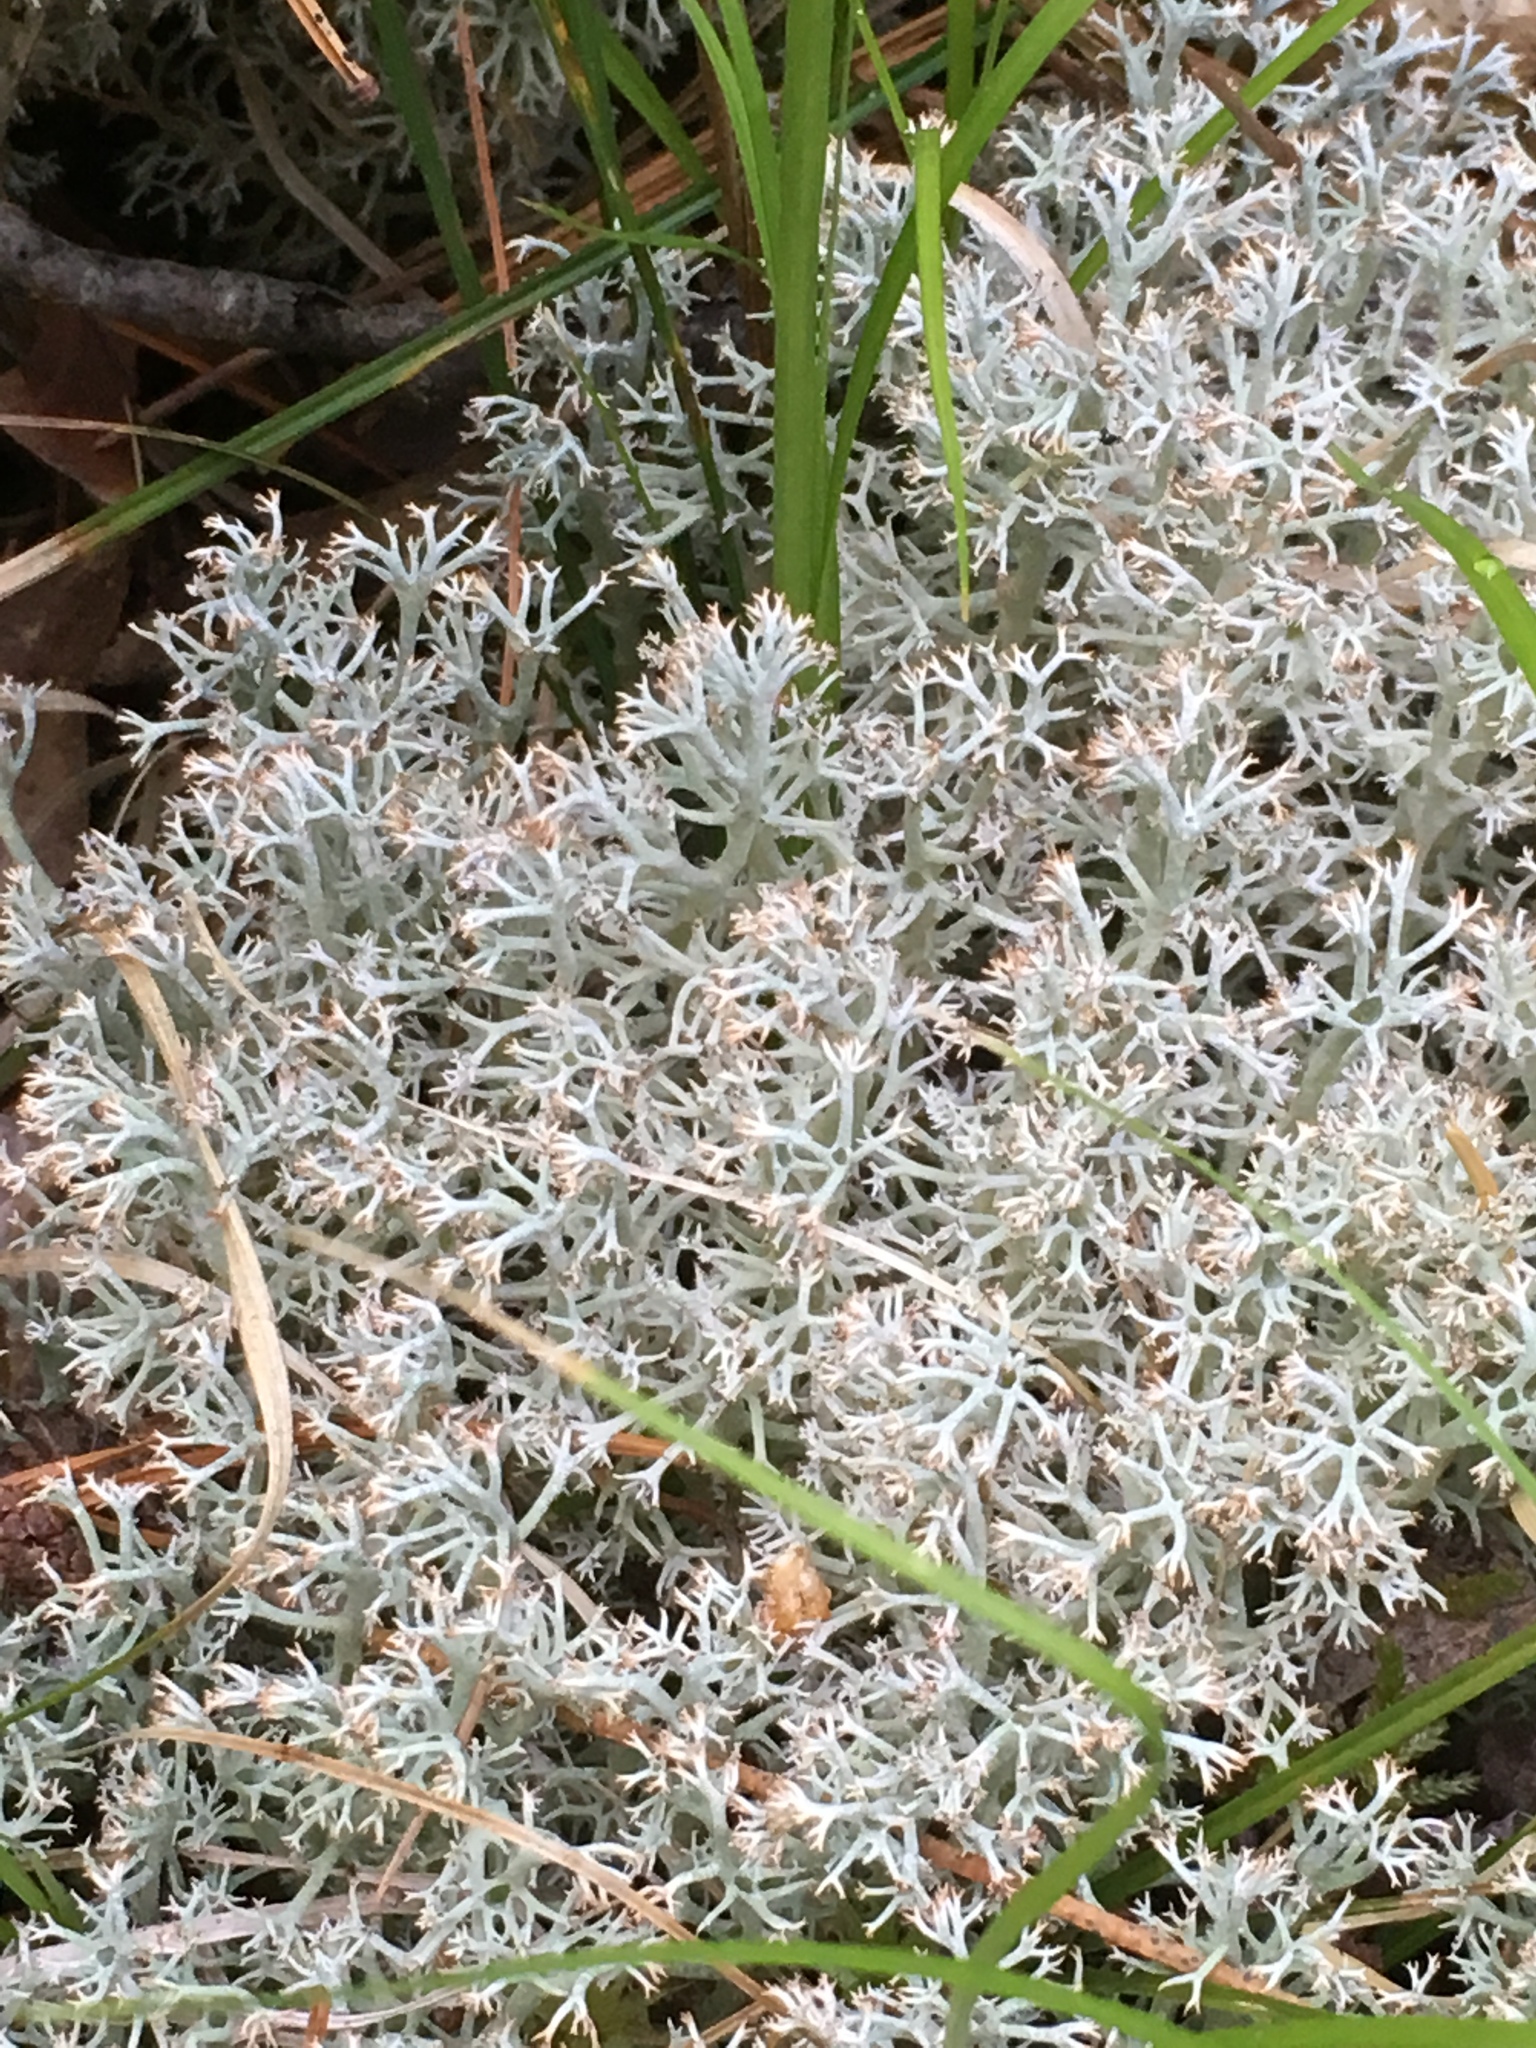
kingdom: Fungi
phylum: Ascomycota
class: Lecanoromycetes
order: Lecanorales
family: Cladoniaceae
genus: Cladonia
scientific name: Cladonia rangiferina
